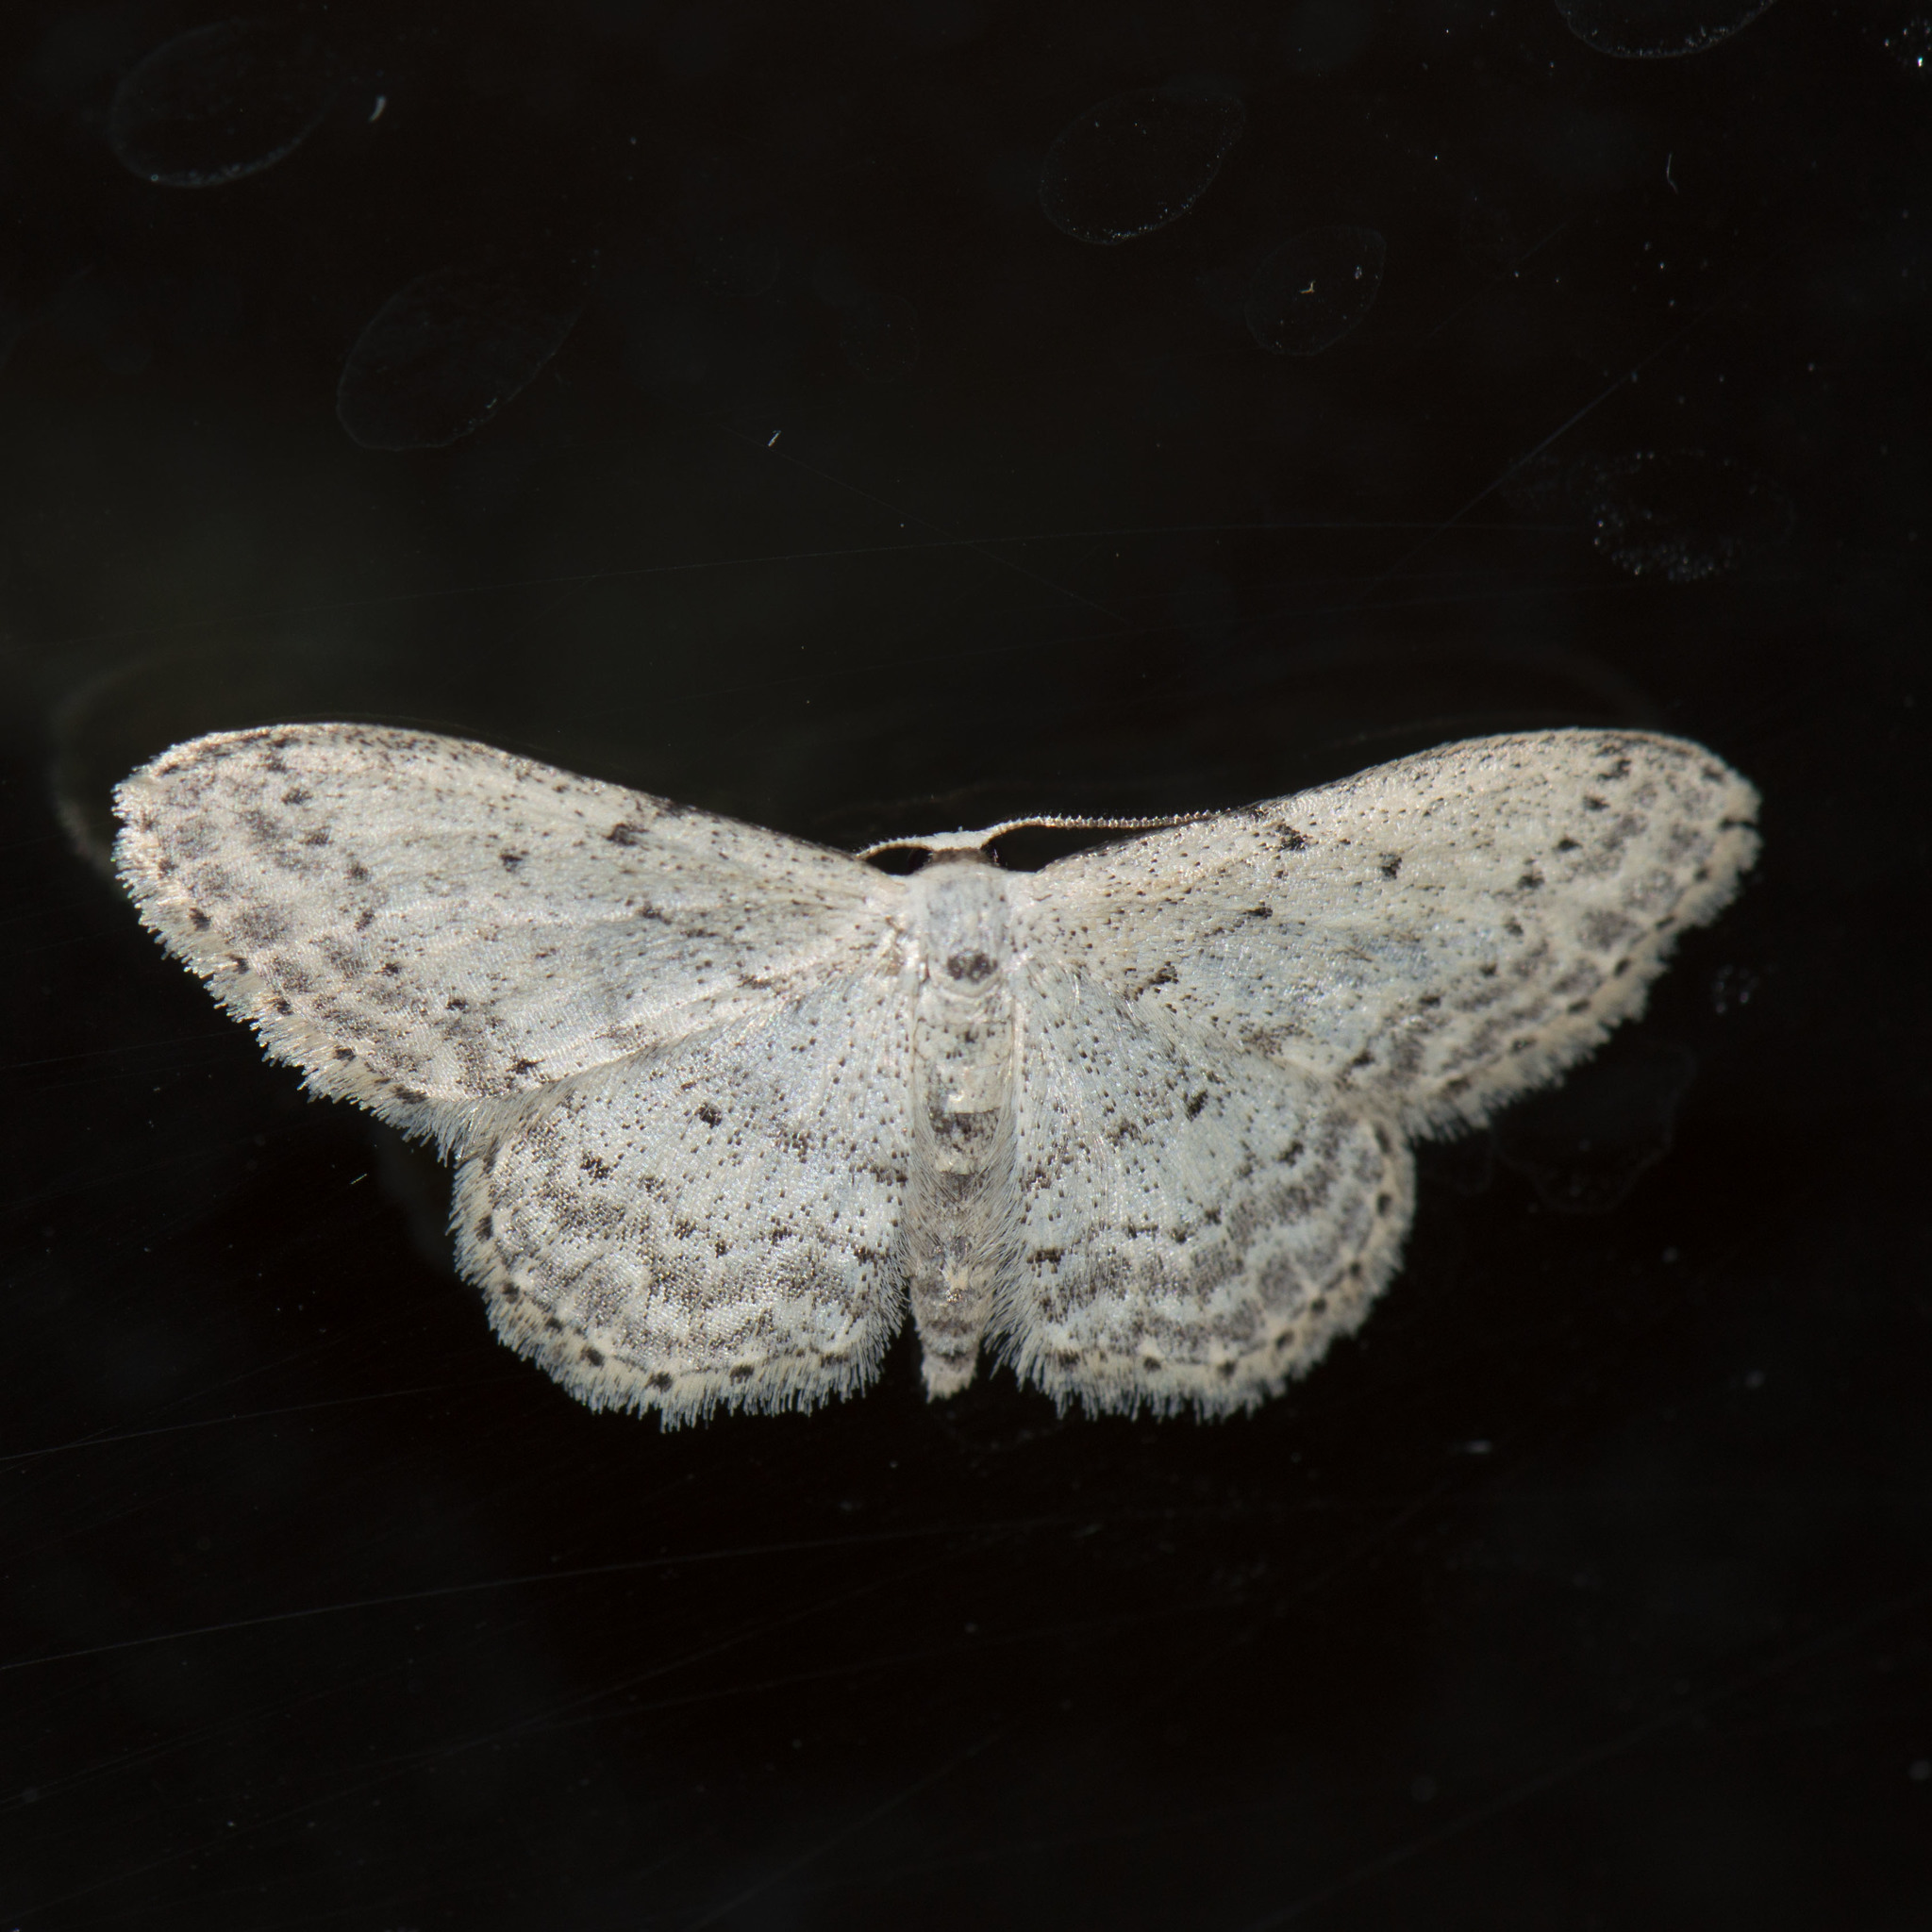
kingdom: Animalia
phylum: Arthropoda
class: Insecta
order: Lepidoptera
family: Geometridae
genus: Idaea
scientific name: Idaea seriata
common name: Small dusty wave
